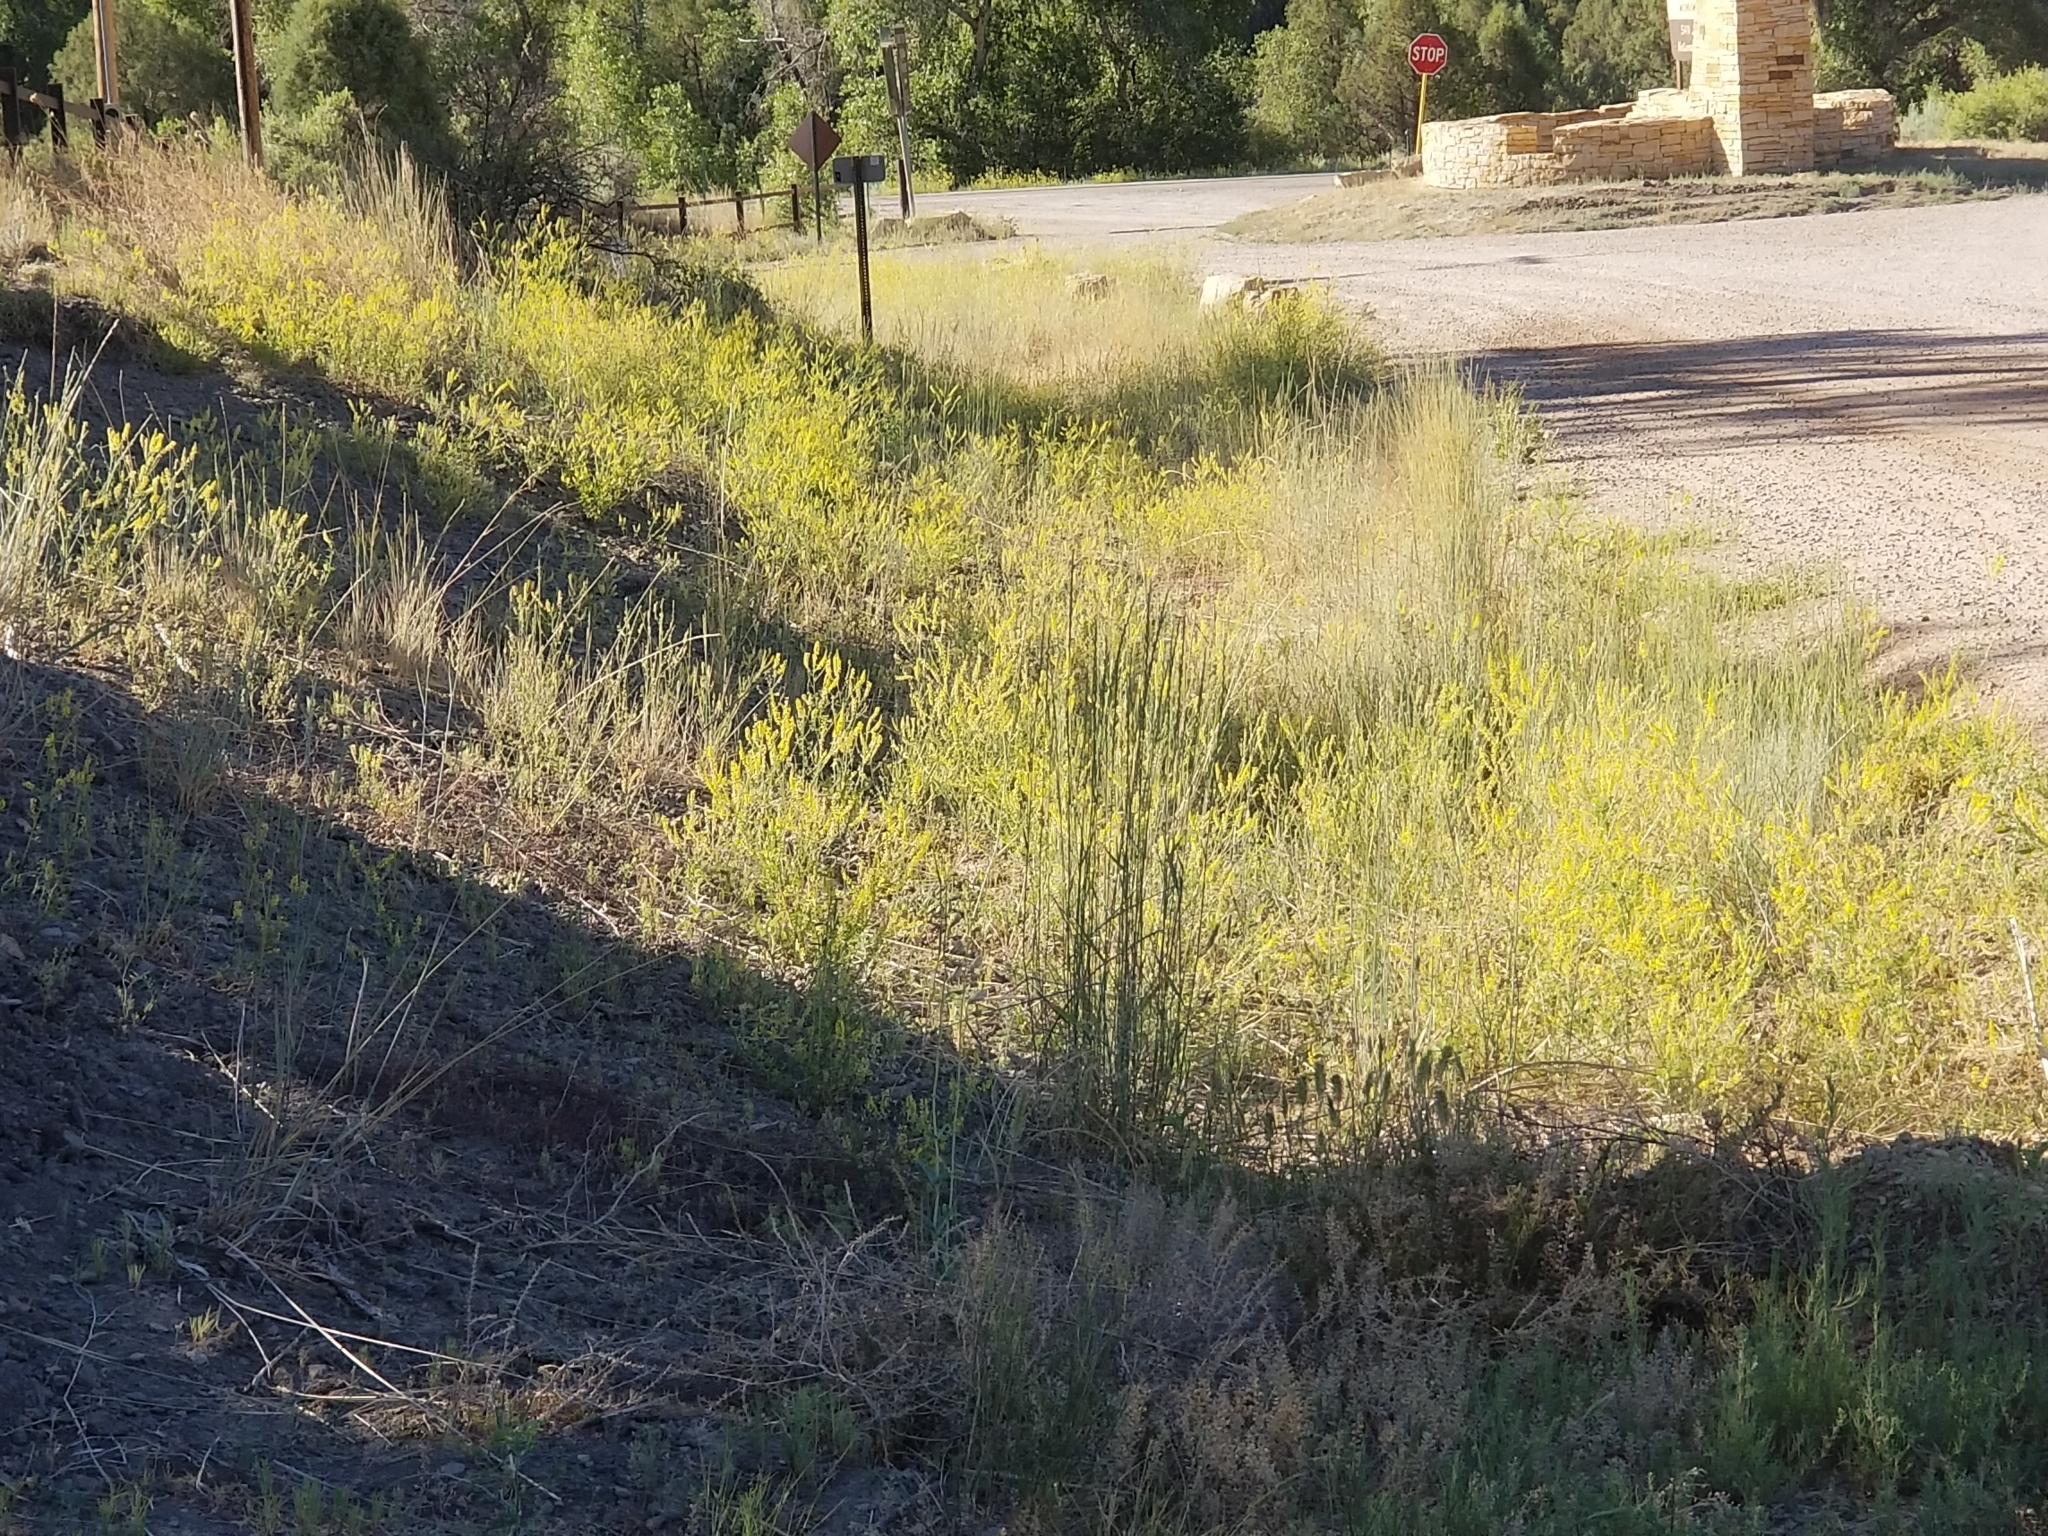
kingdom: Plantae
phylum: Tracheophyta
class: Magnoliopsida
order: Fabales
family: Fabaceae
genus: Melilotus
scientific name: Melilotus officinalis
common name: Sweetclover
